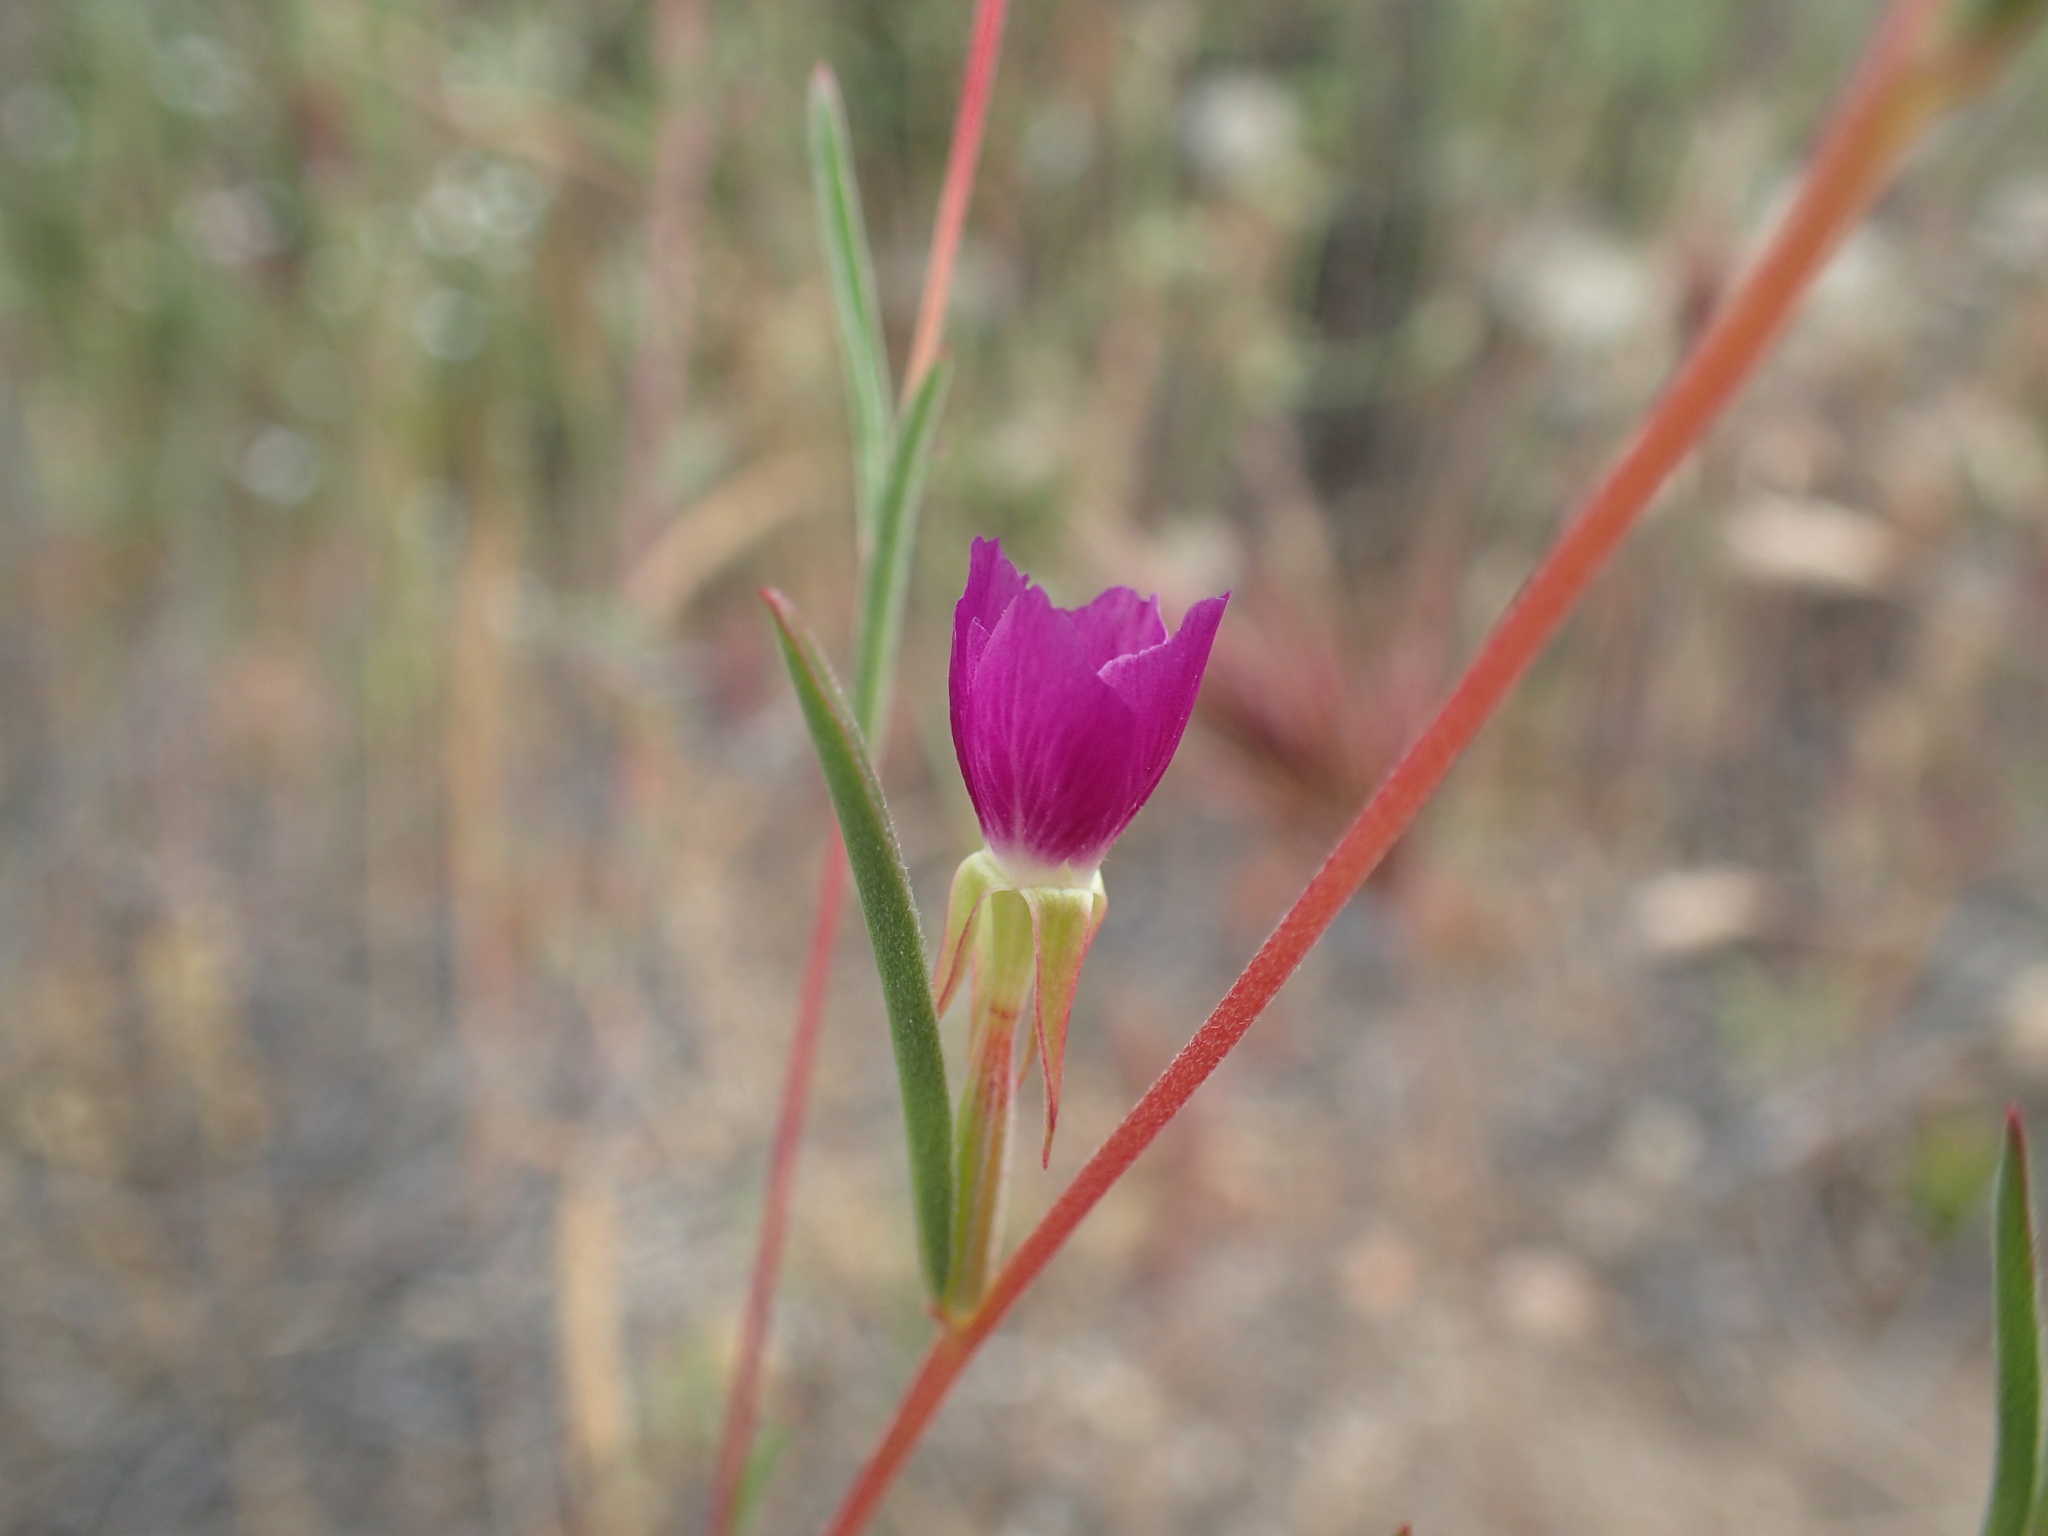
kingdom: Plantae
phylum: Tracheophyta
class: Magnoliopsida
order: Myrtales
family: Onagraceae
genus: Clarkia
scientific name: Clarkia purpurea
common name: Purple clarkia
